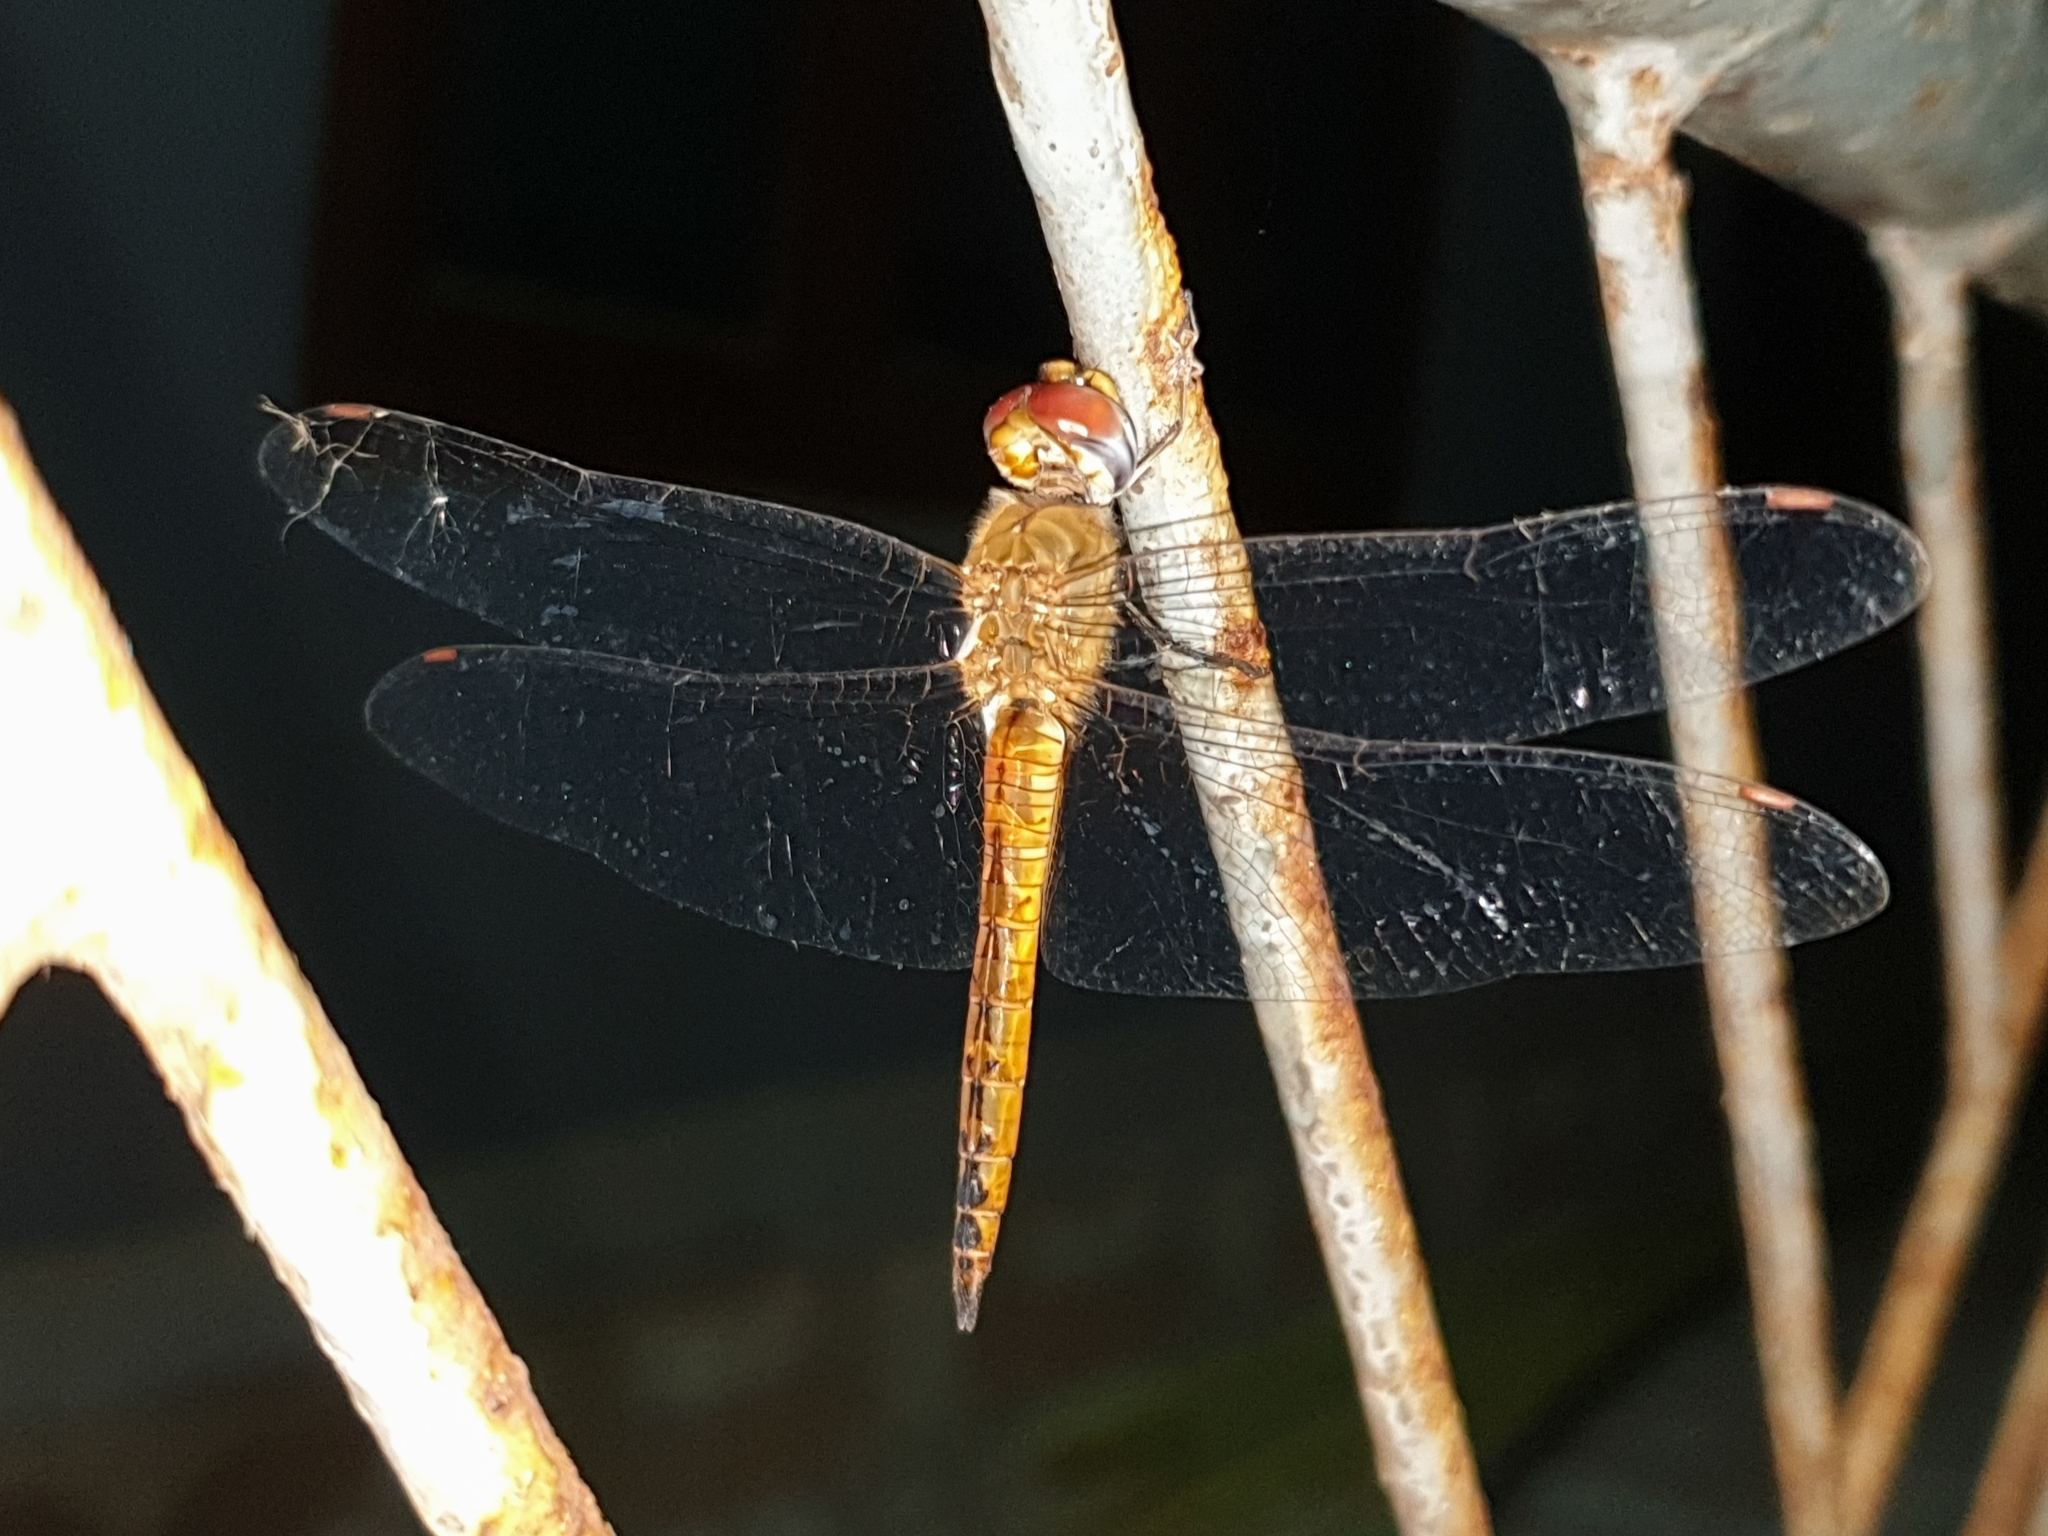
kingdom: Animalia
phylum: Arthropoda
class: Insecta
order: Odonata
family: Libellulidae
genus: Pantala
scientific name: Pantala flavescens
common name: Wandering glider
